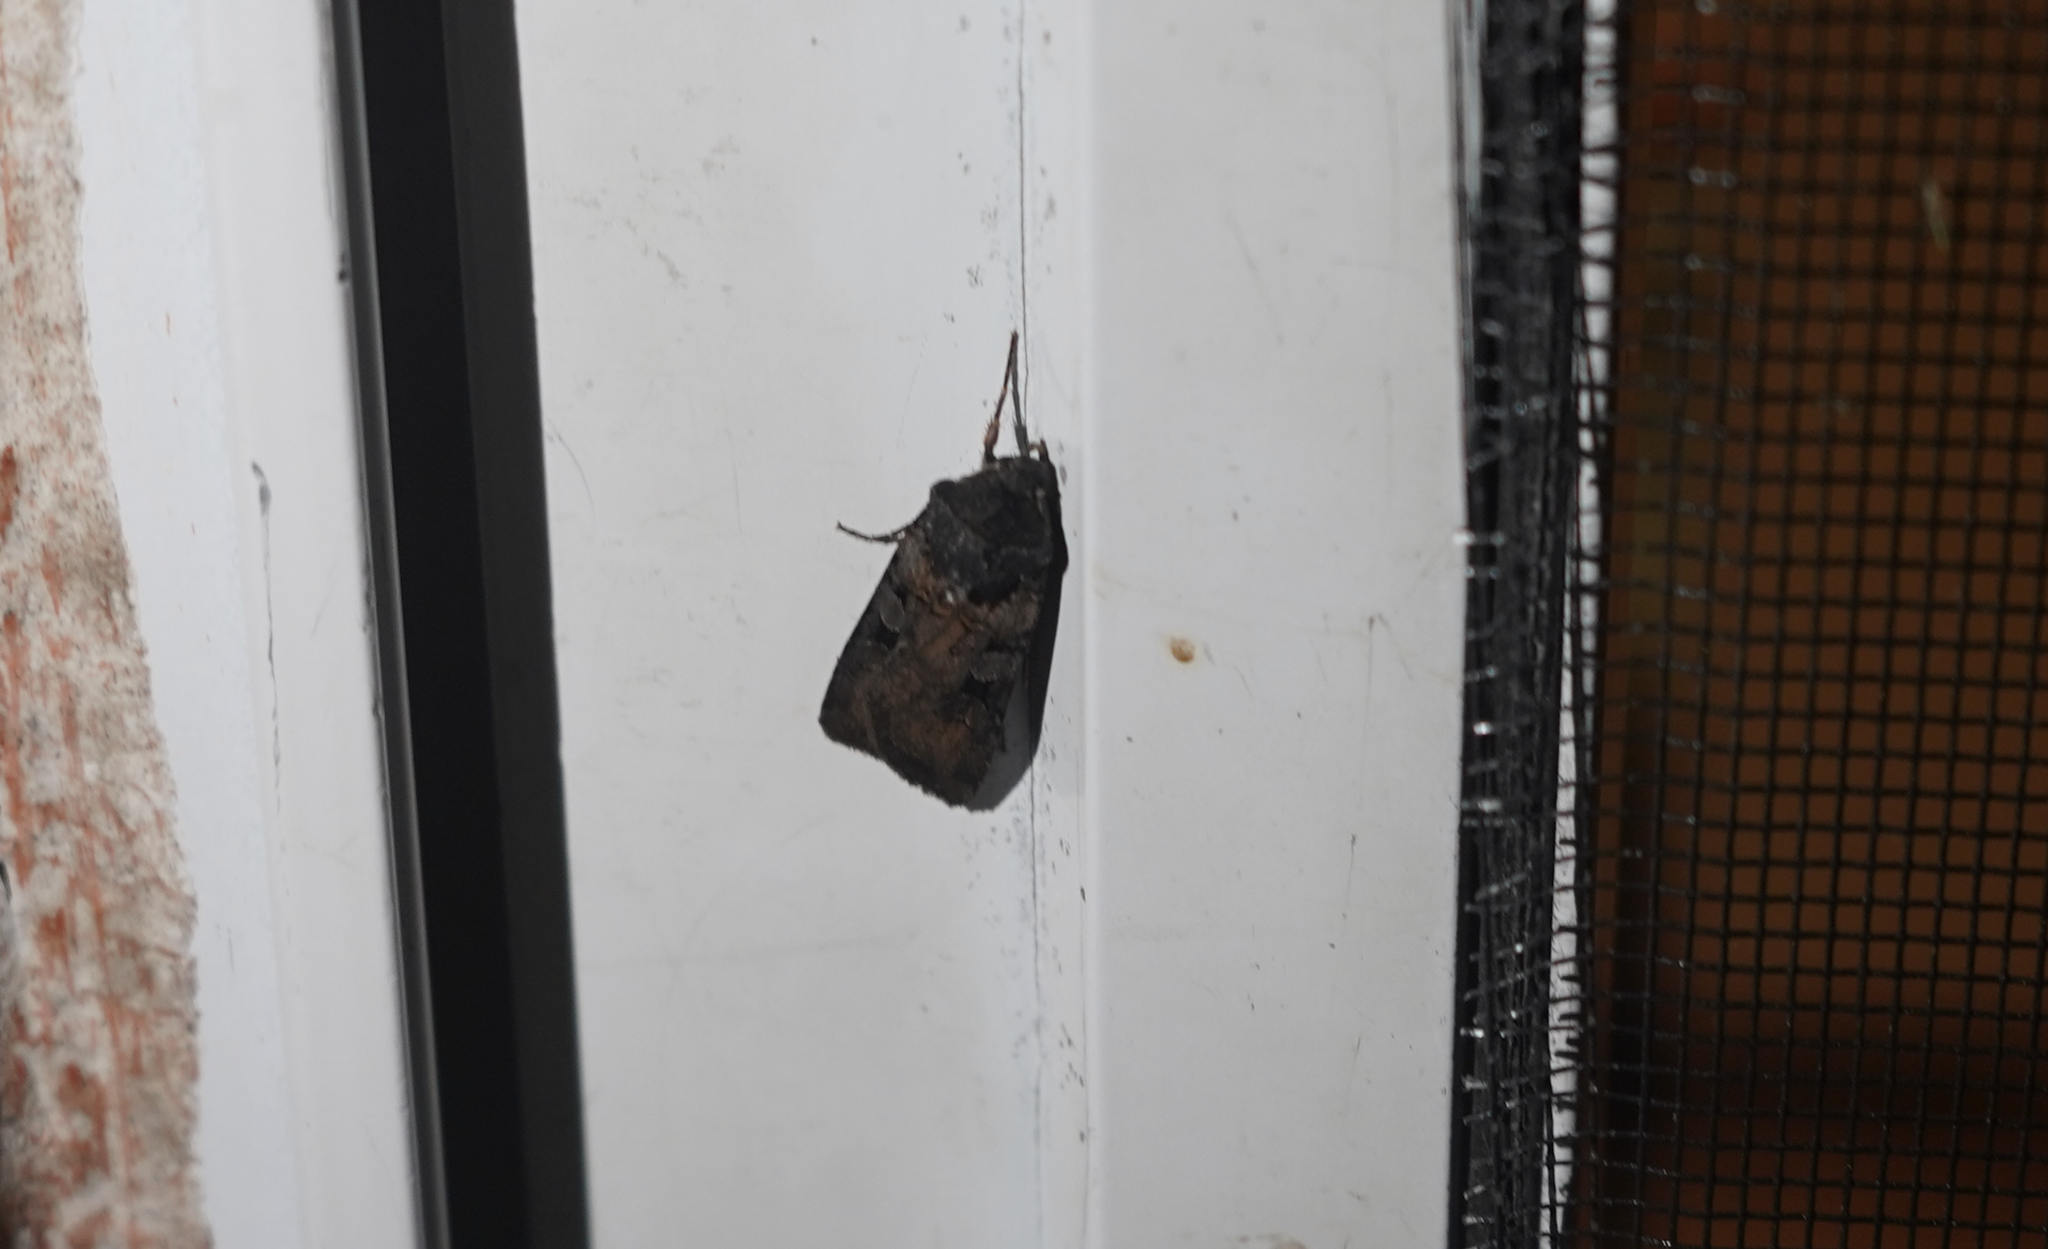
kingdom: Animalia
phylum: Arthropoda
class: Insecta
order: Lepidoptera
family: Noctuidae
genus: Euxoa
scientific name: Euxoa albipennis
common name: White-striped dart
